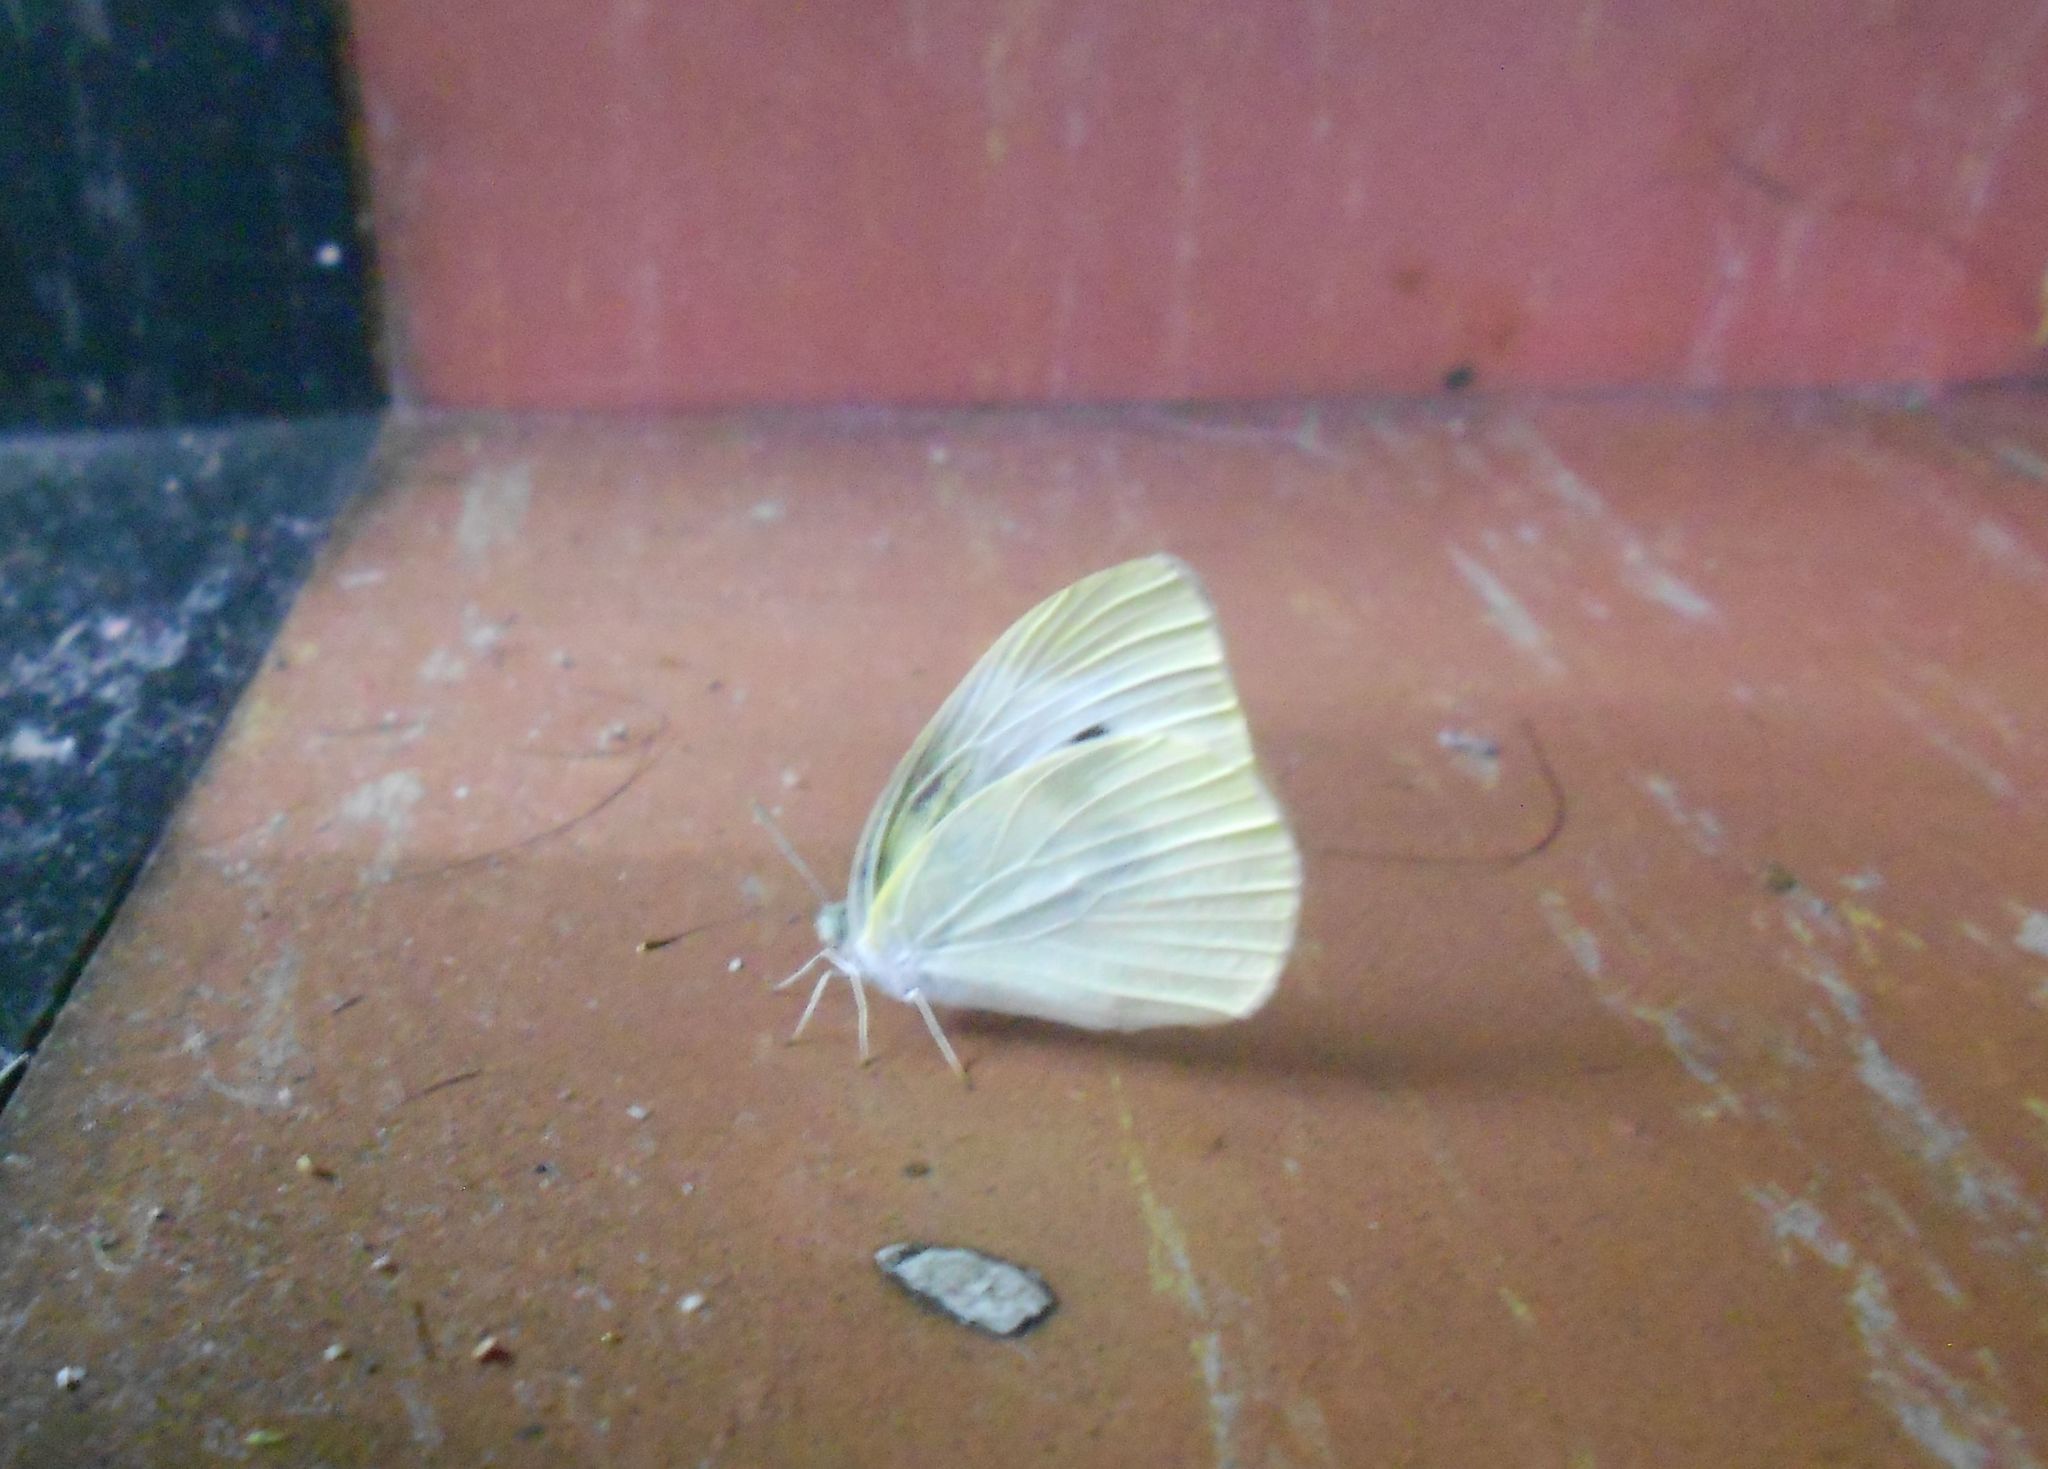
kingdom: Animalia
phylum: Arthropoda
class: Insecta
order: Lepidoptera
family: Pieridae
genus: Pieris
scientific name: Pieris rapae
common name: Small white
